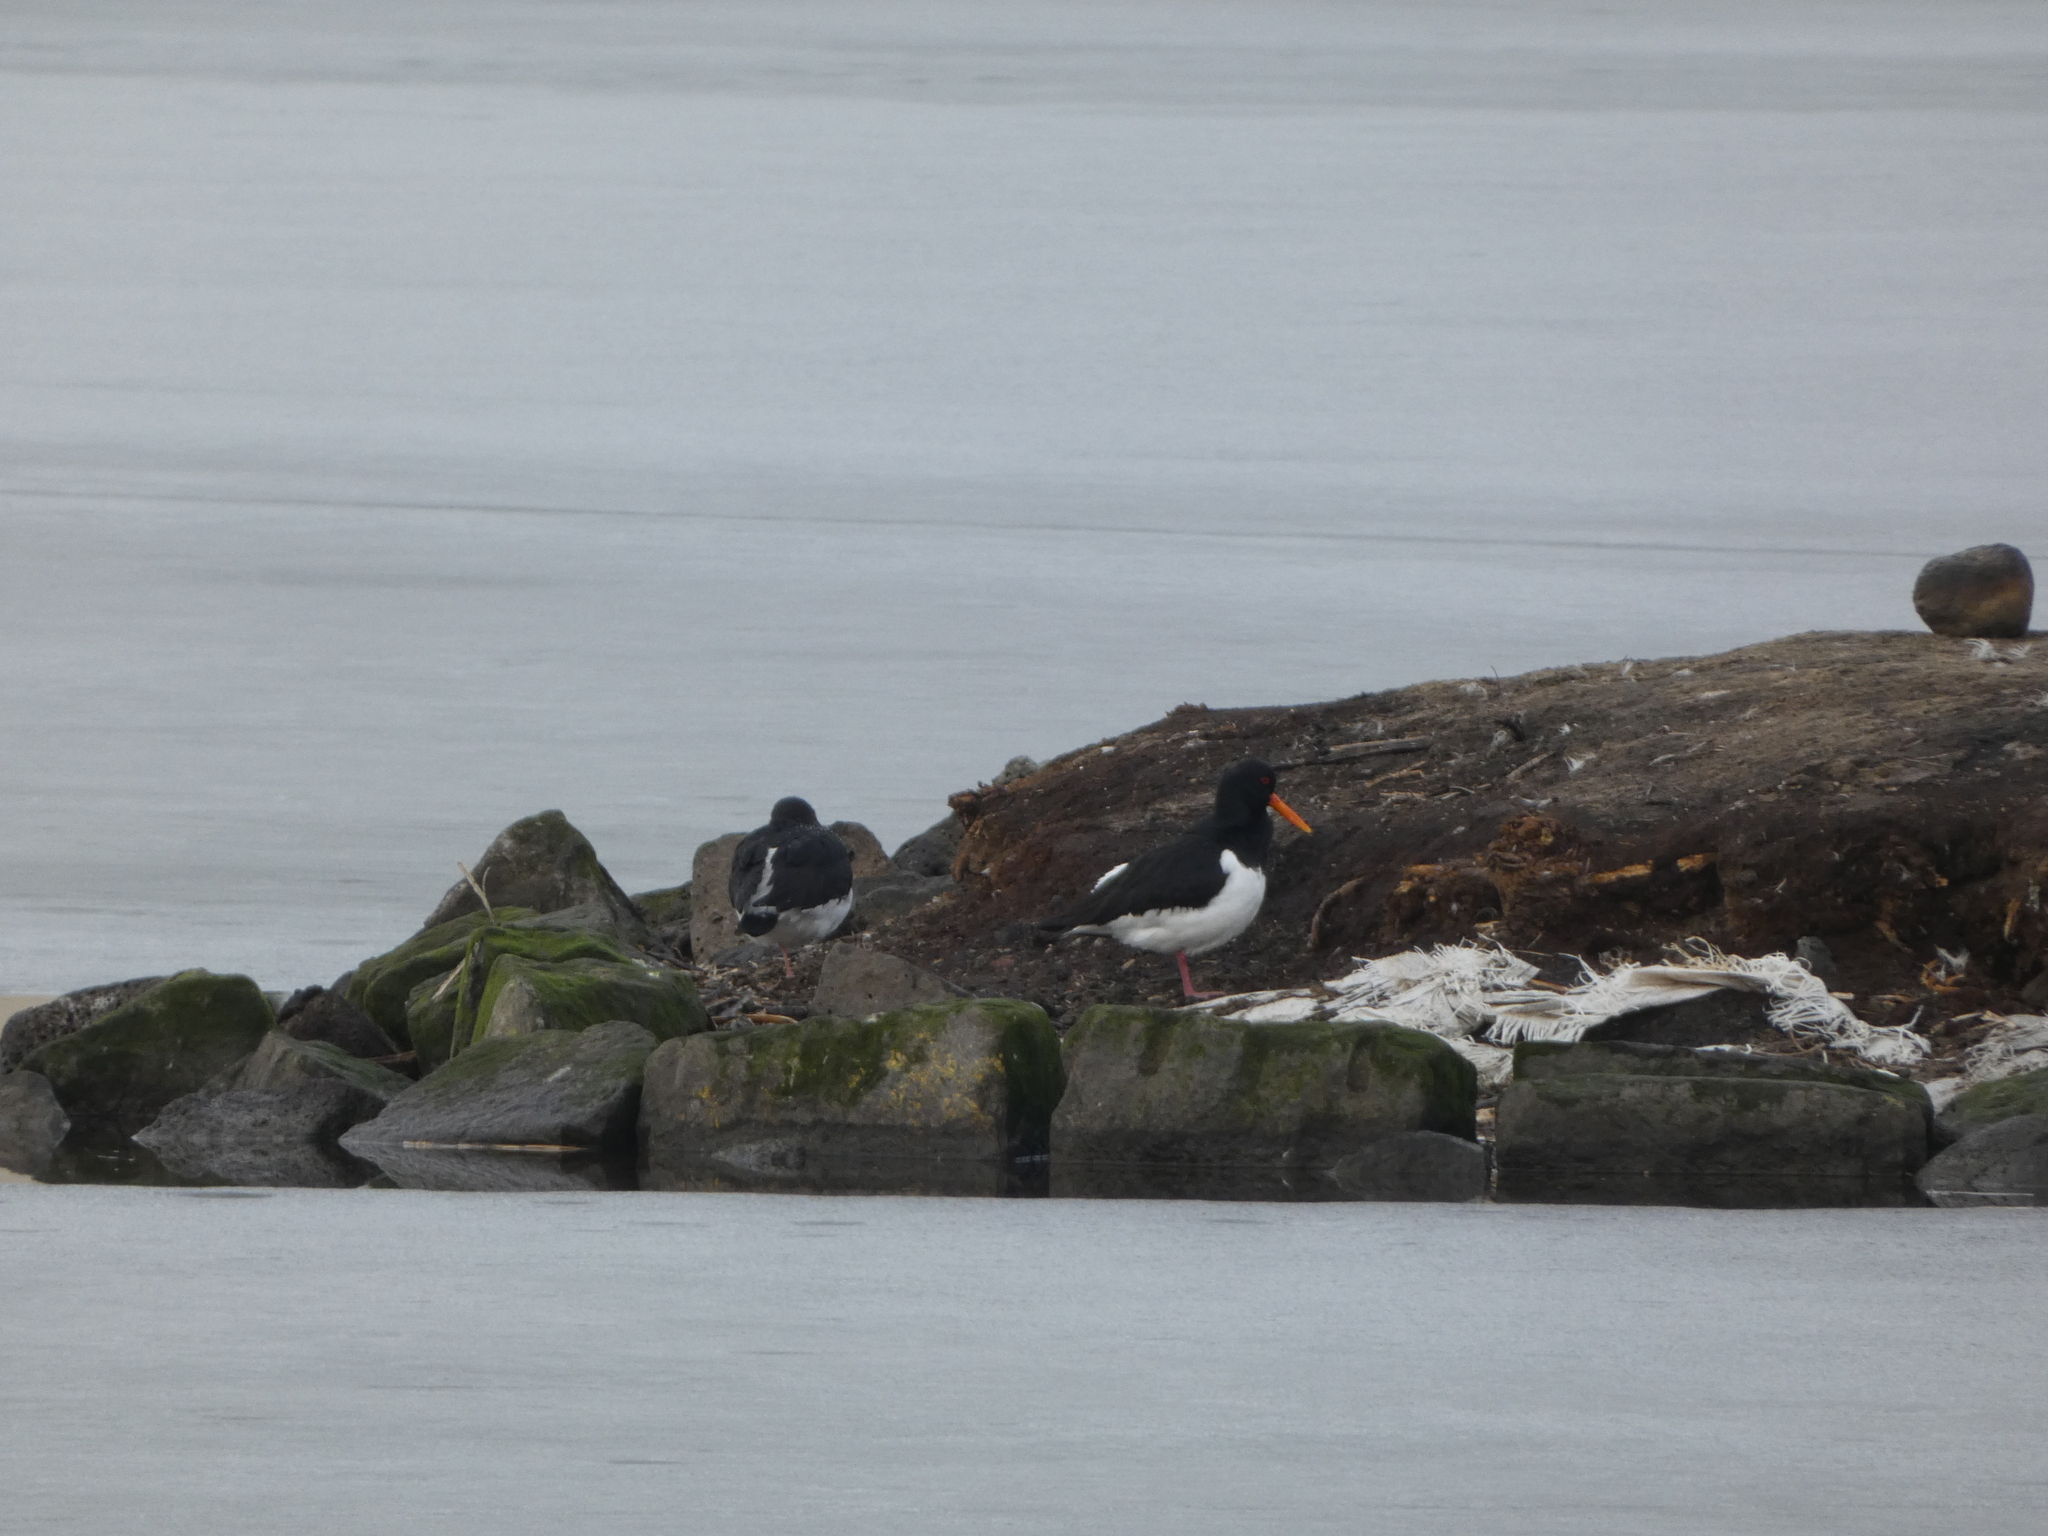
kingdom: Animalia
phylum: Chordata
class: Aves
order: Charadriiformes
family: Haematopodidae
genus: Haematopus
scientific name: Haematopus ostralegus
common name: Eurasian oystercatcher
